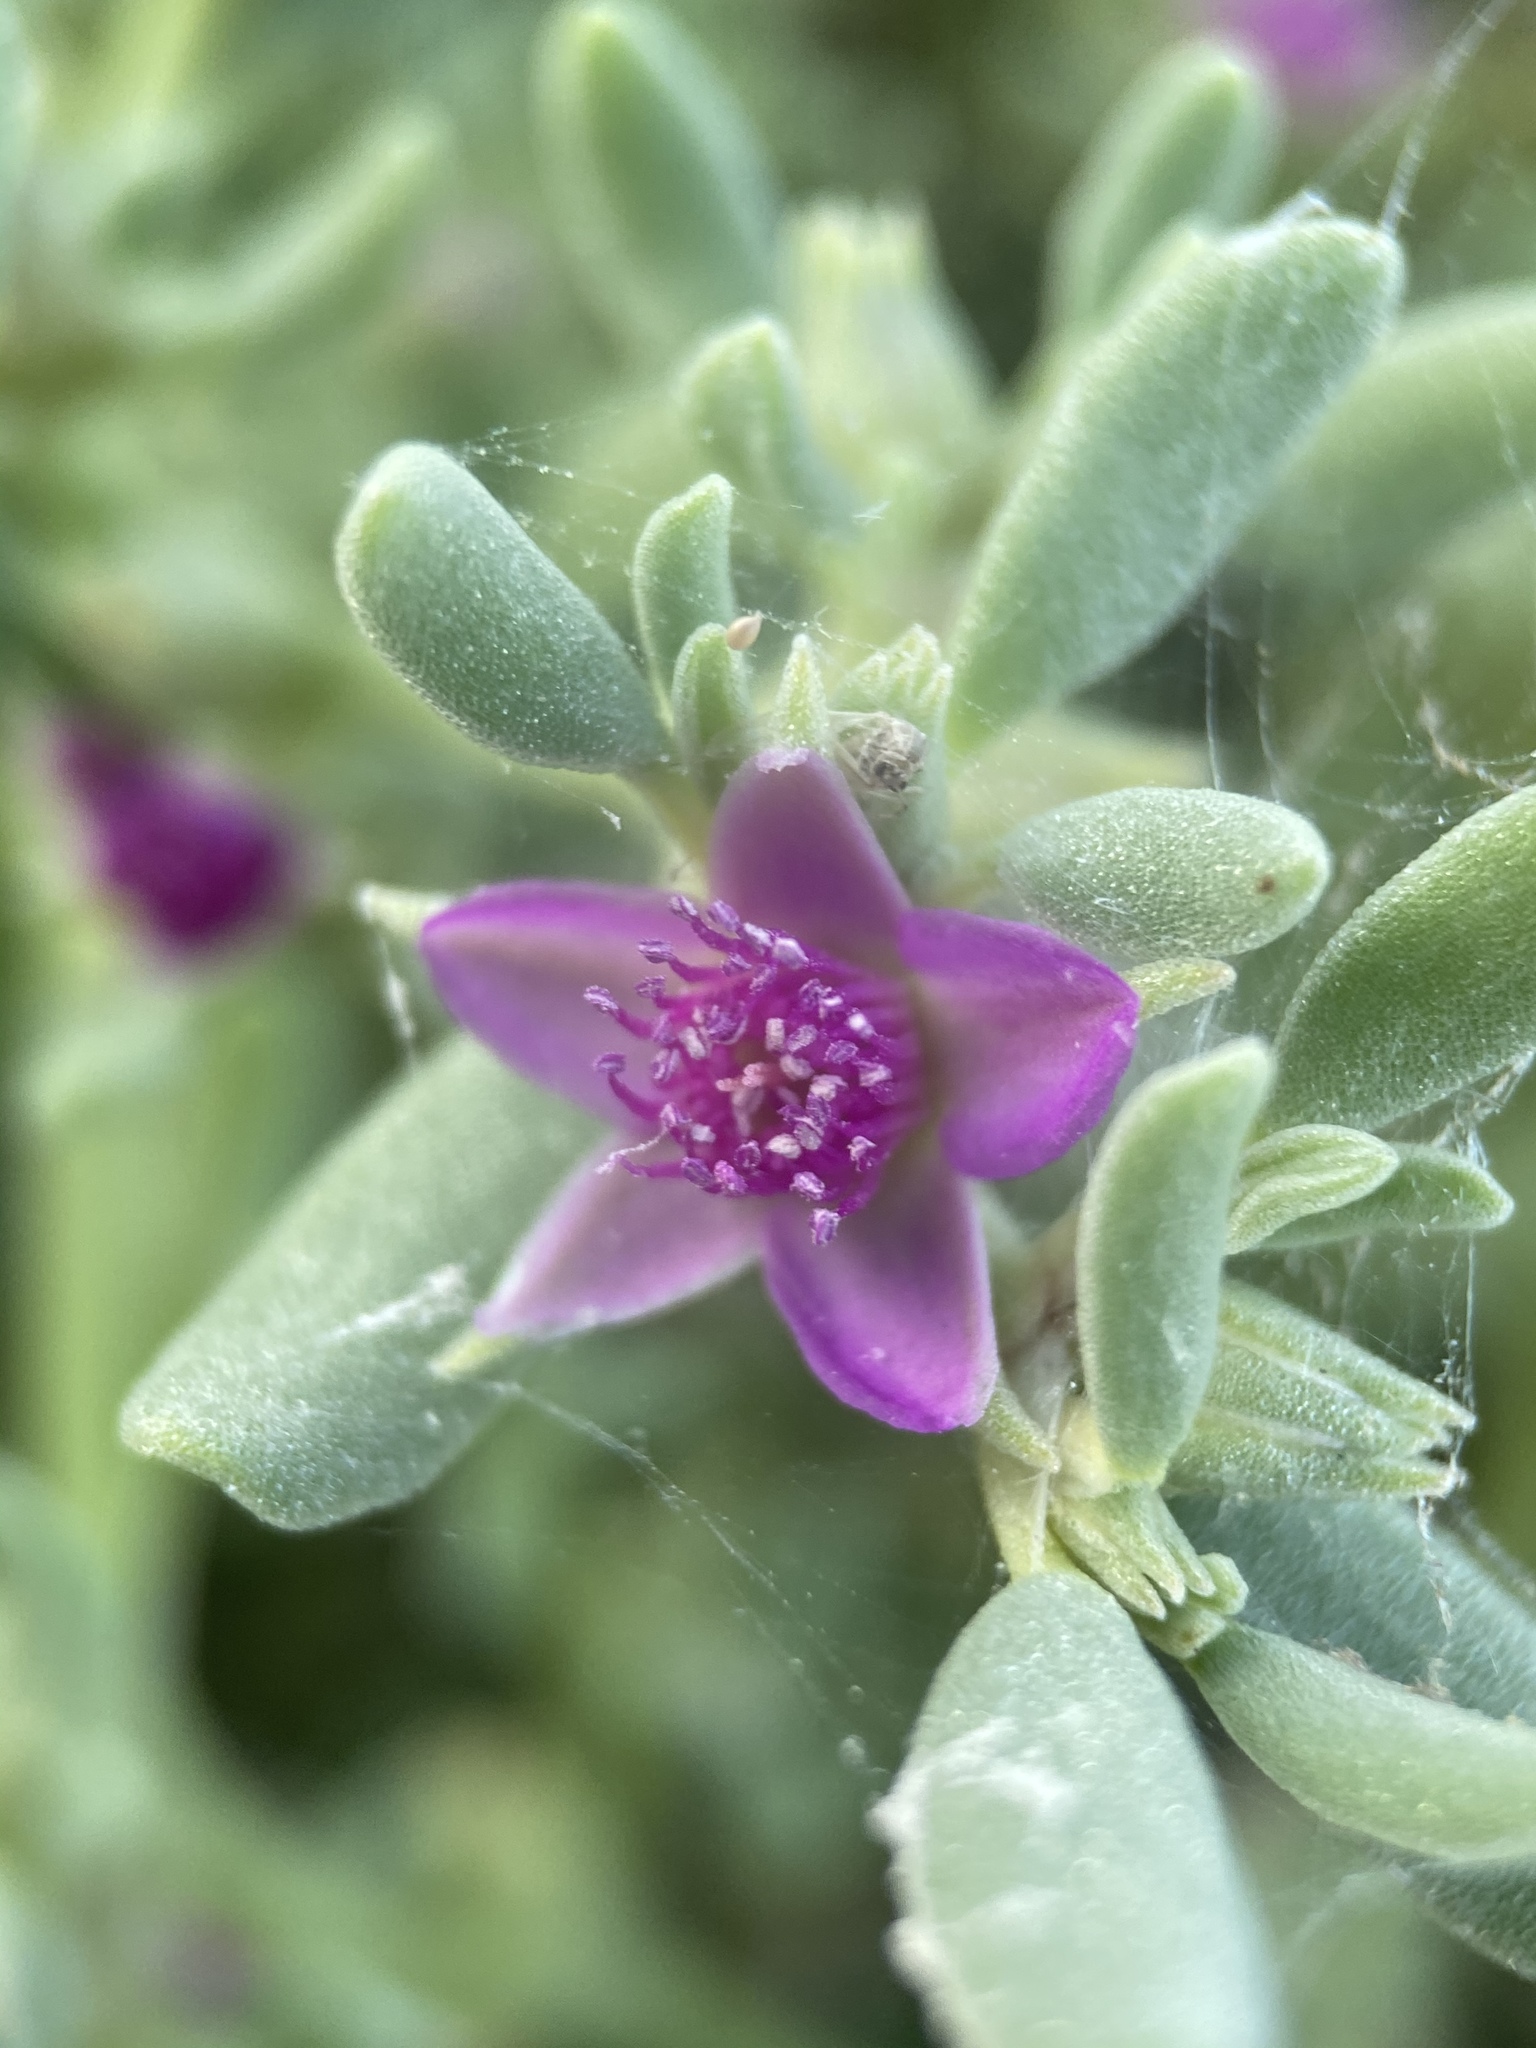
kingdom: Plantae
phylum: Tracheophyta
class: Magnoliopsida
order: Caryophyllales
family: Aizoaceae
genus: Sesuvium
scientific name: Sesuvium revolutifolium
